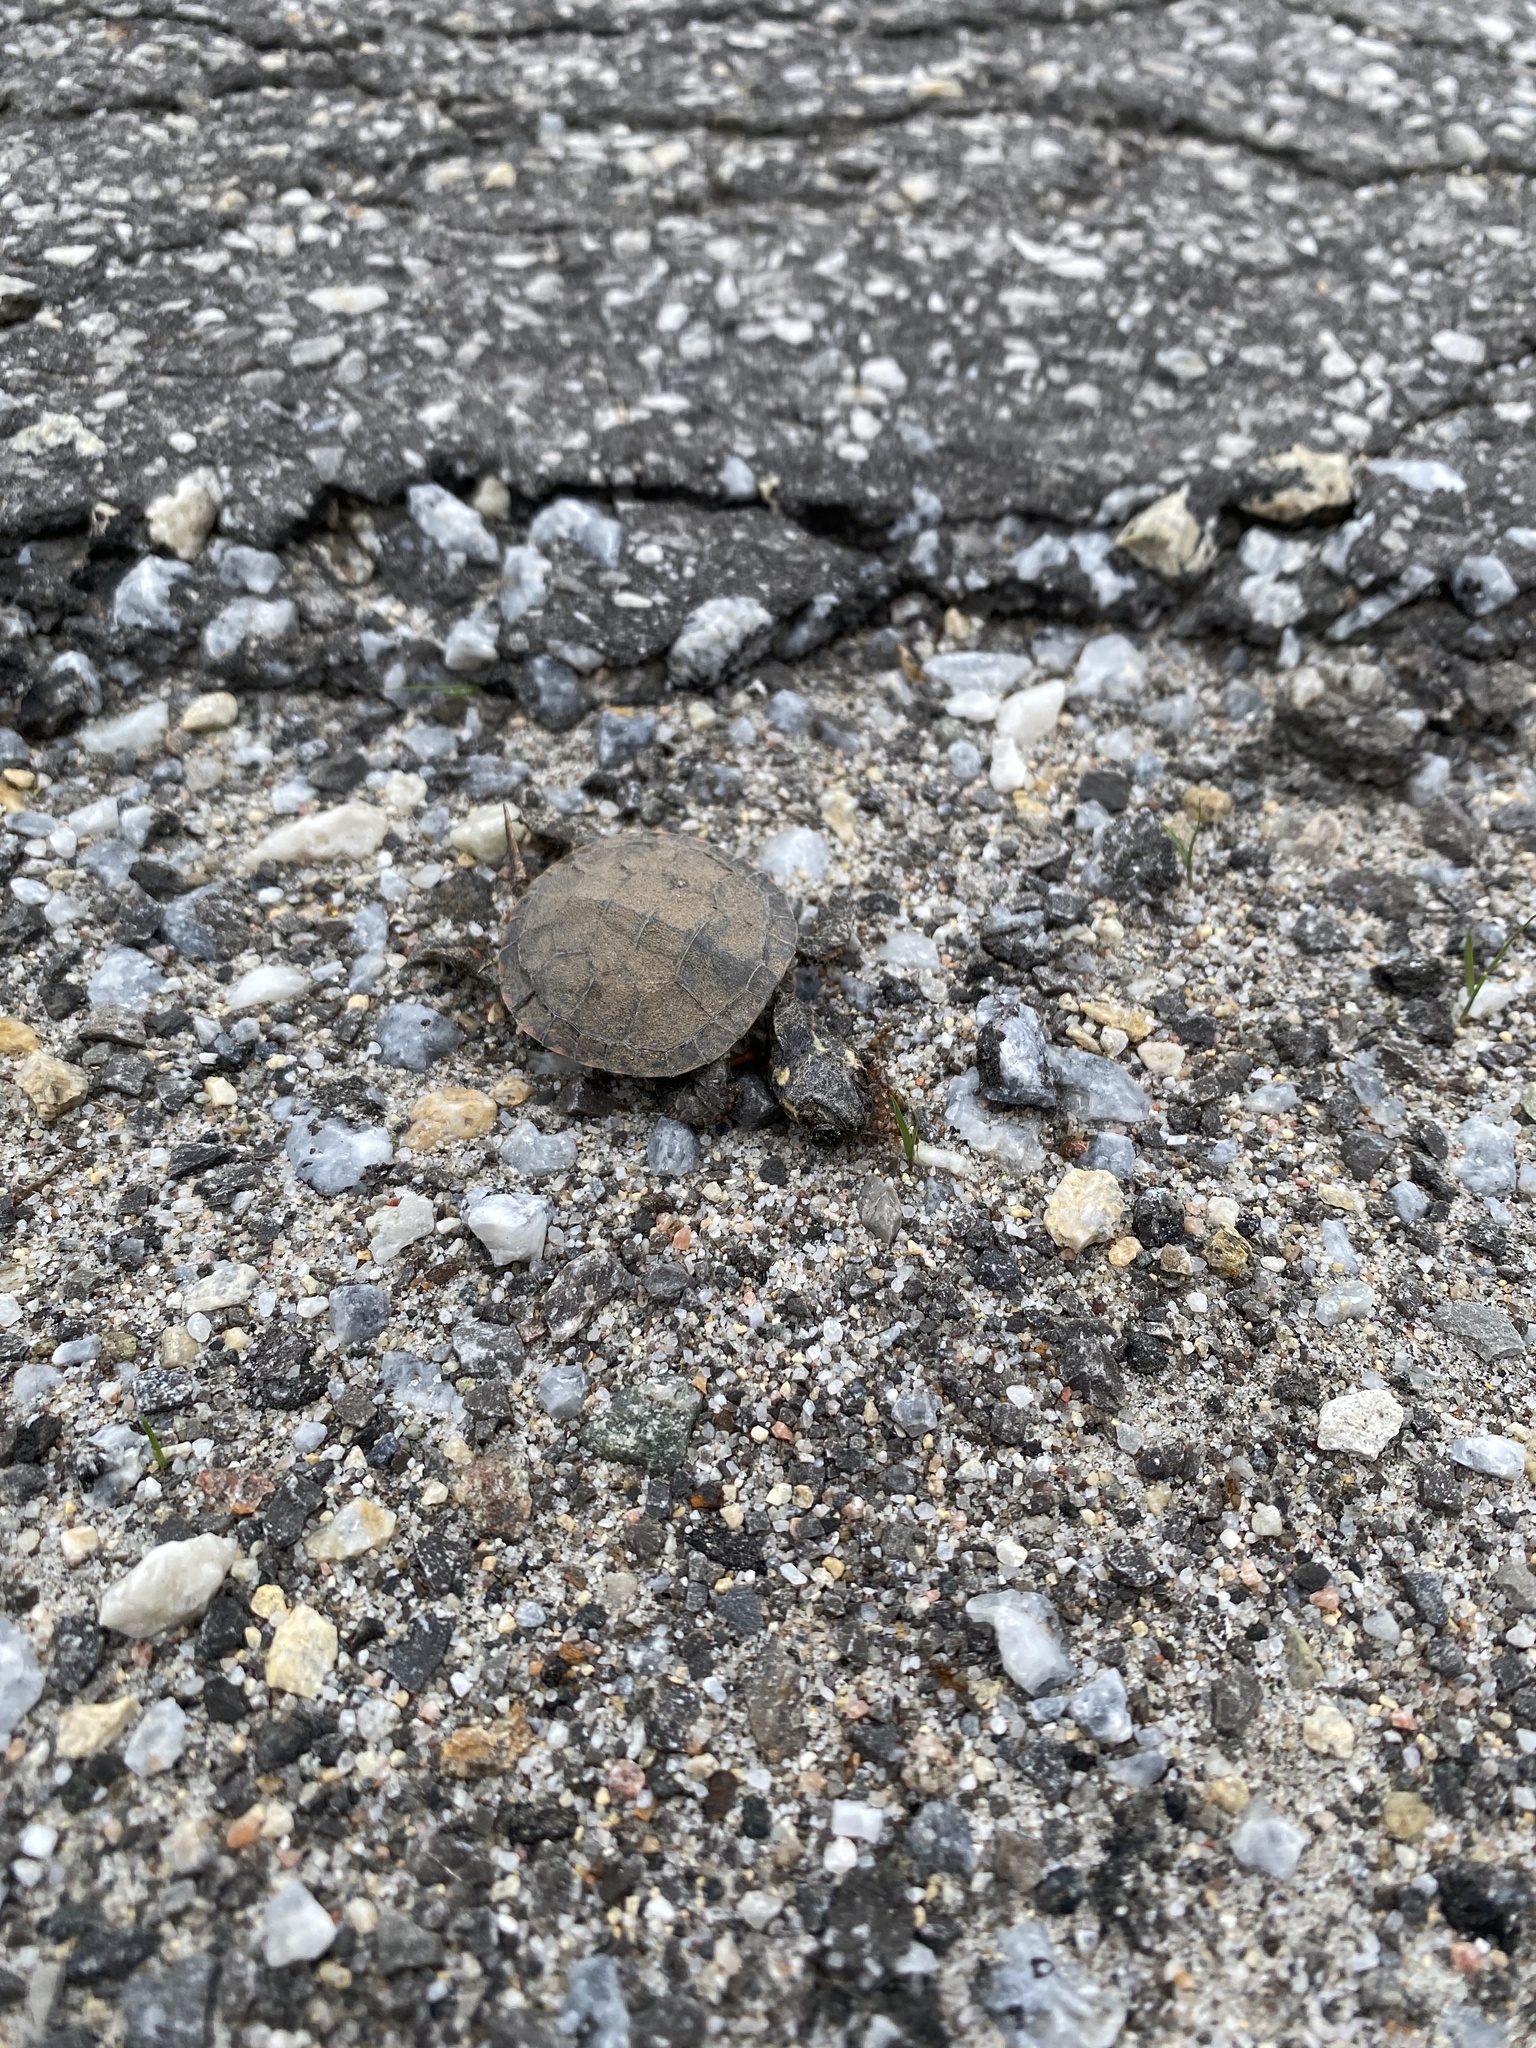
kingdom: Animalia
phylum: Chordata
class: Testudines
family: Emydidae
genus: Chrysemys
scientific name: Chrysemys picta
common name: Painted turtle
